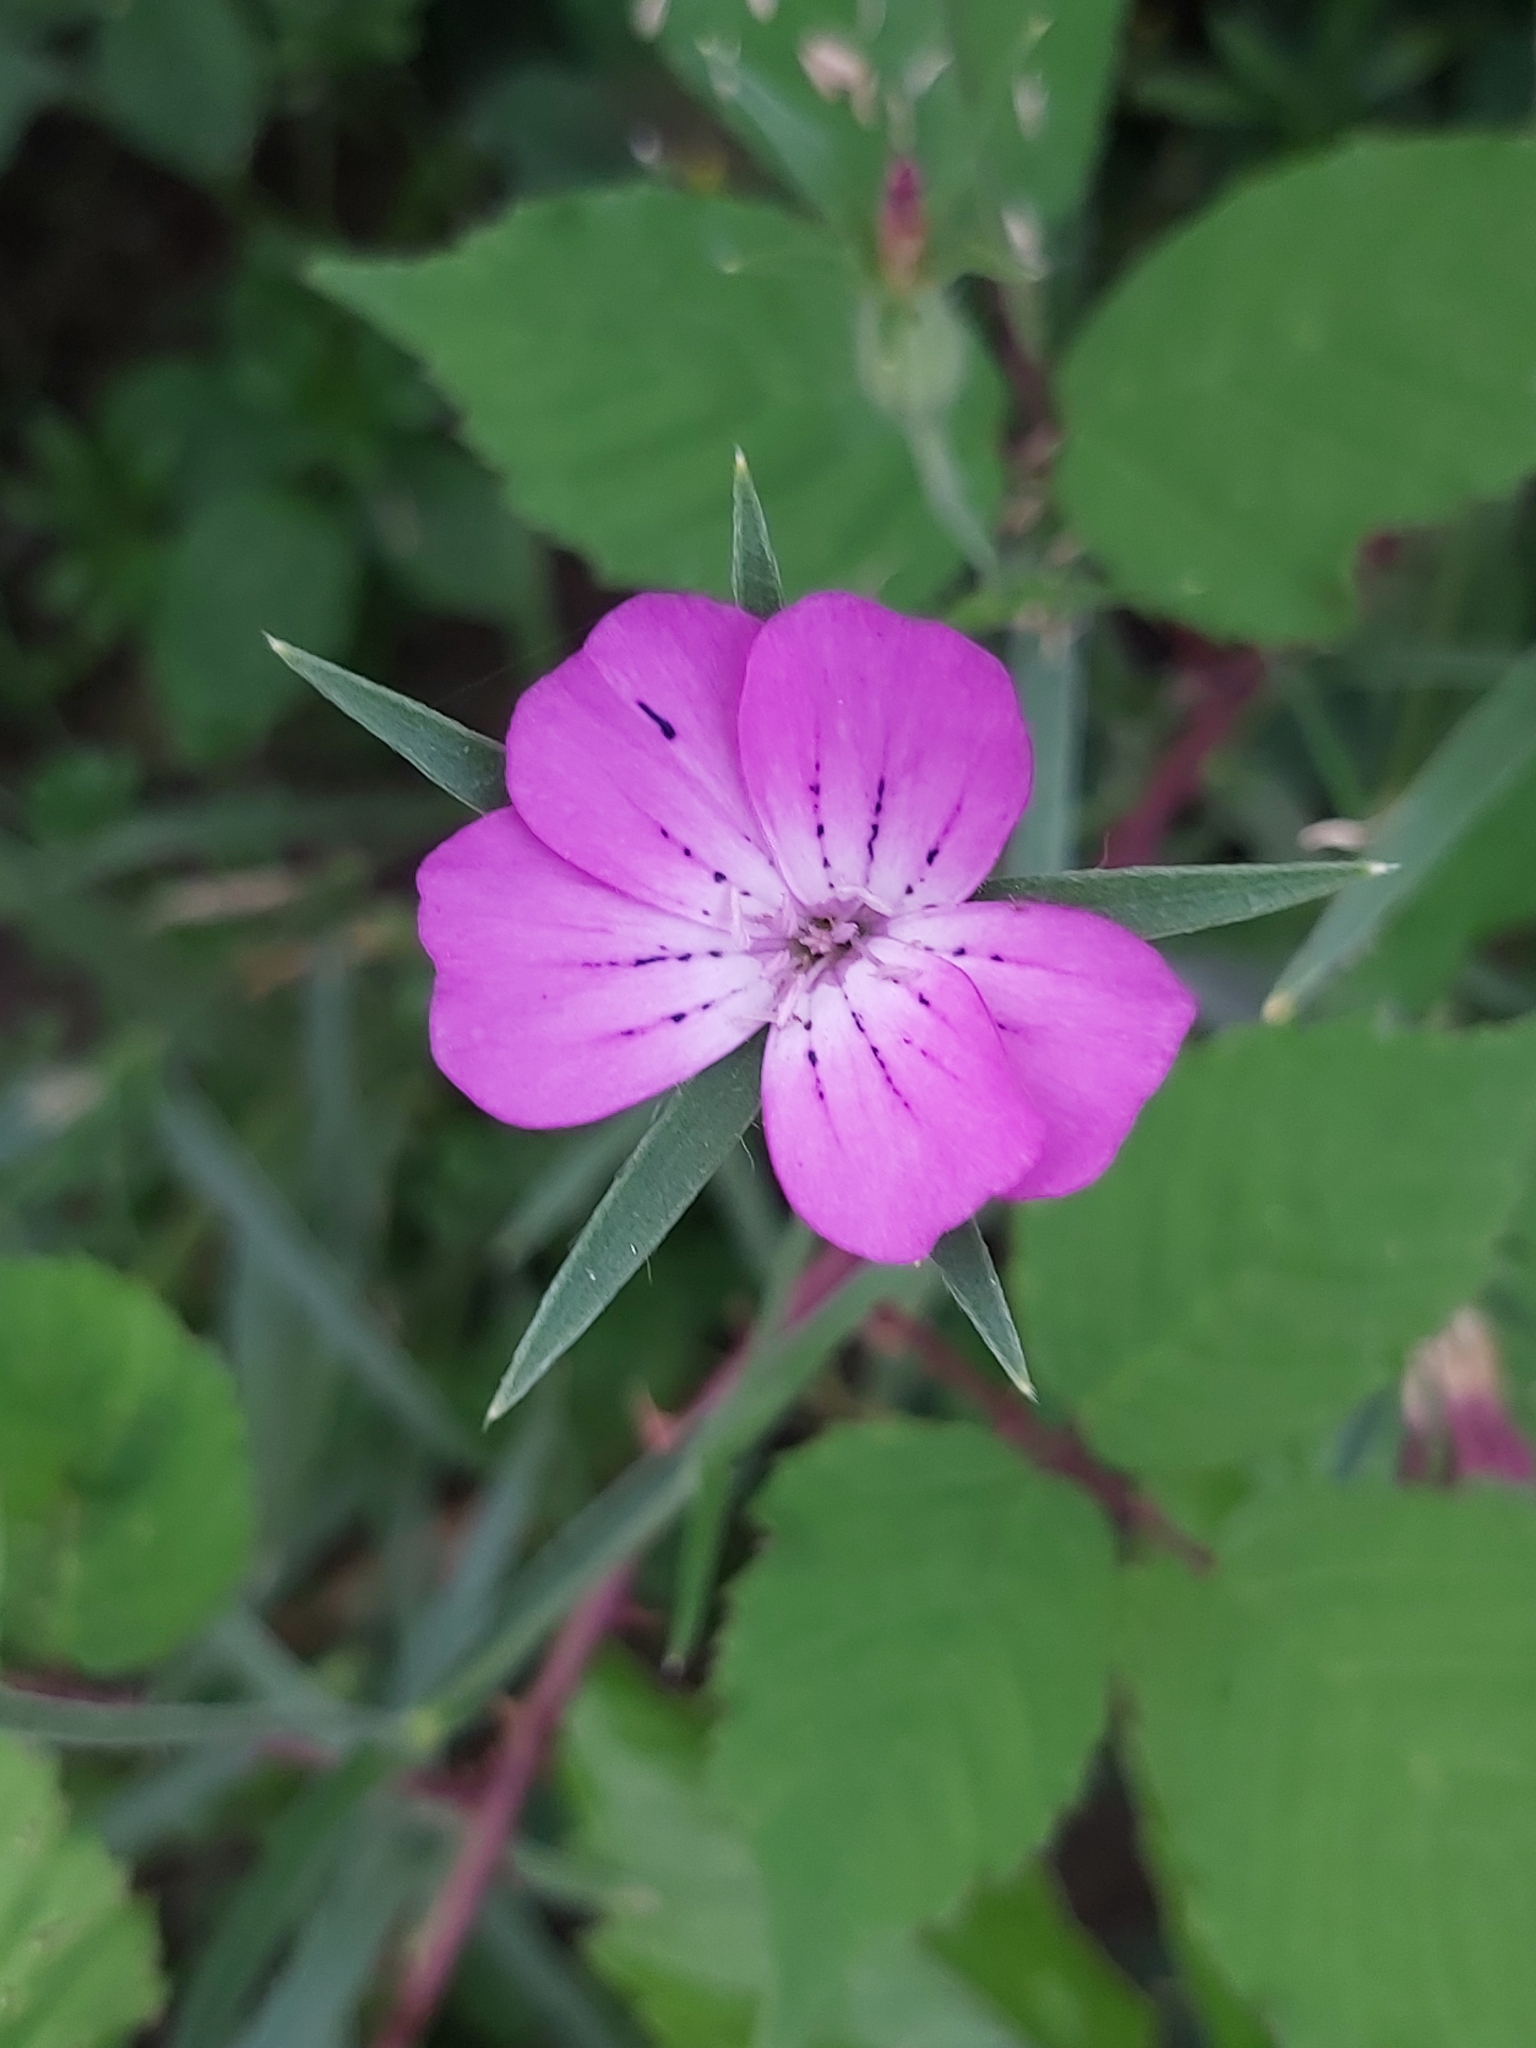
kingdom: Plantae
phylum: Tracheophyta
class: Magnoliopsida
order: Caryophyllales
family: Caryophyllaceae
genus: Agrostemma
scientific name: Agrostemma githago
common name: Common corncockle
